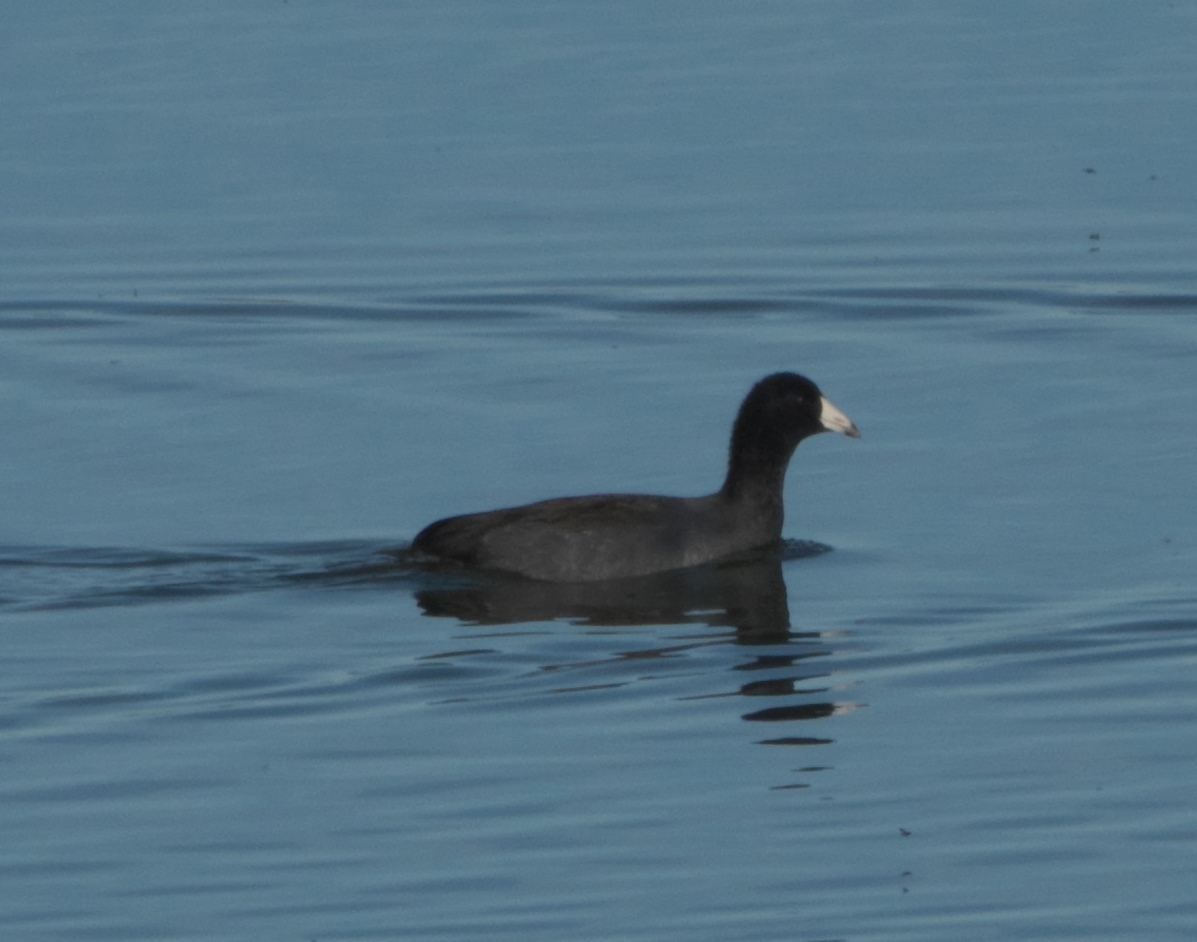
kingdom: Animalia
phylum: Chordata
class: Aves
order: Gruiformes
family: Rallidae
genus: Fulica
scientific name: Fulica americana
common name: American coot
